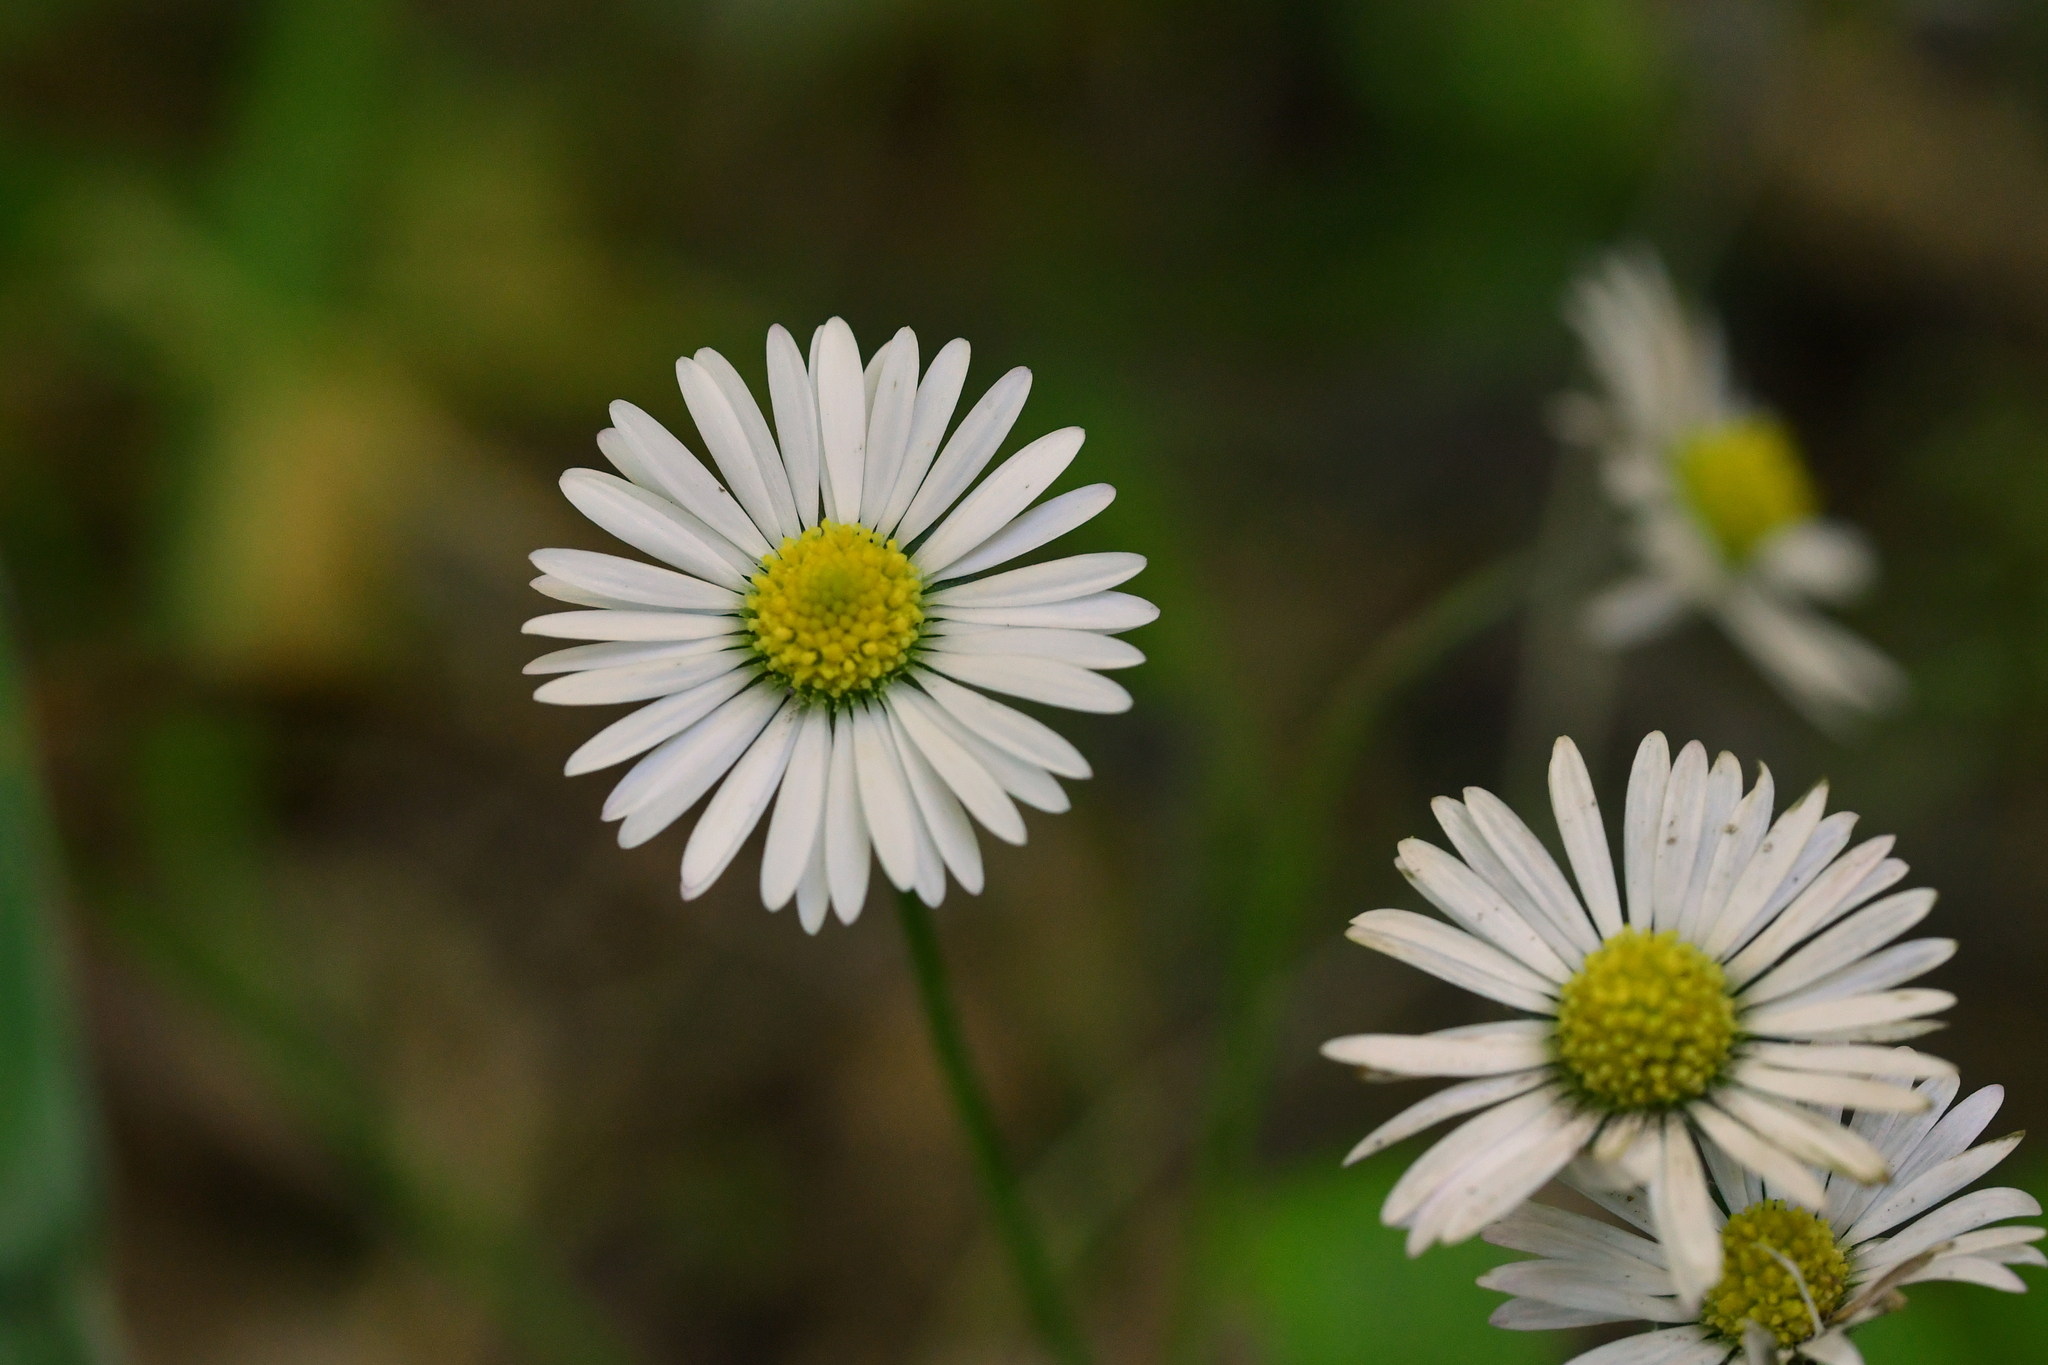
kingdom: Plantae
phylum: Tracheophyta
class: Magnoliopsida
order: Asterales
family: Asteraceae
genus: Lagenophora
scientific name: Lagenophora pumila
